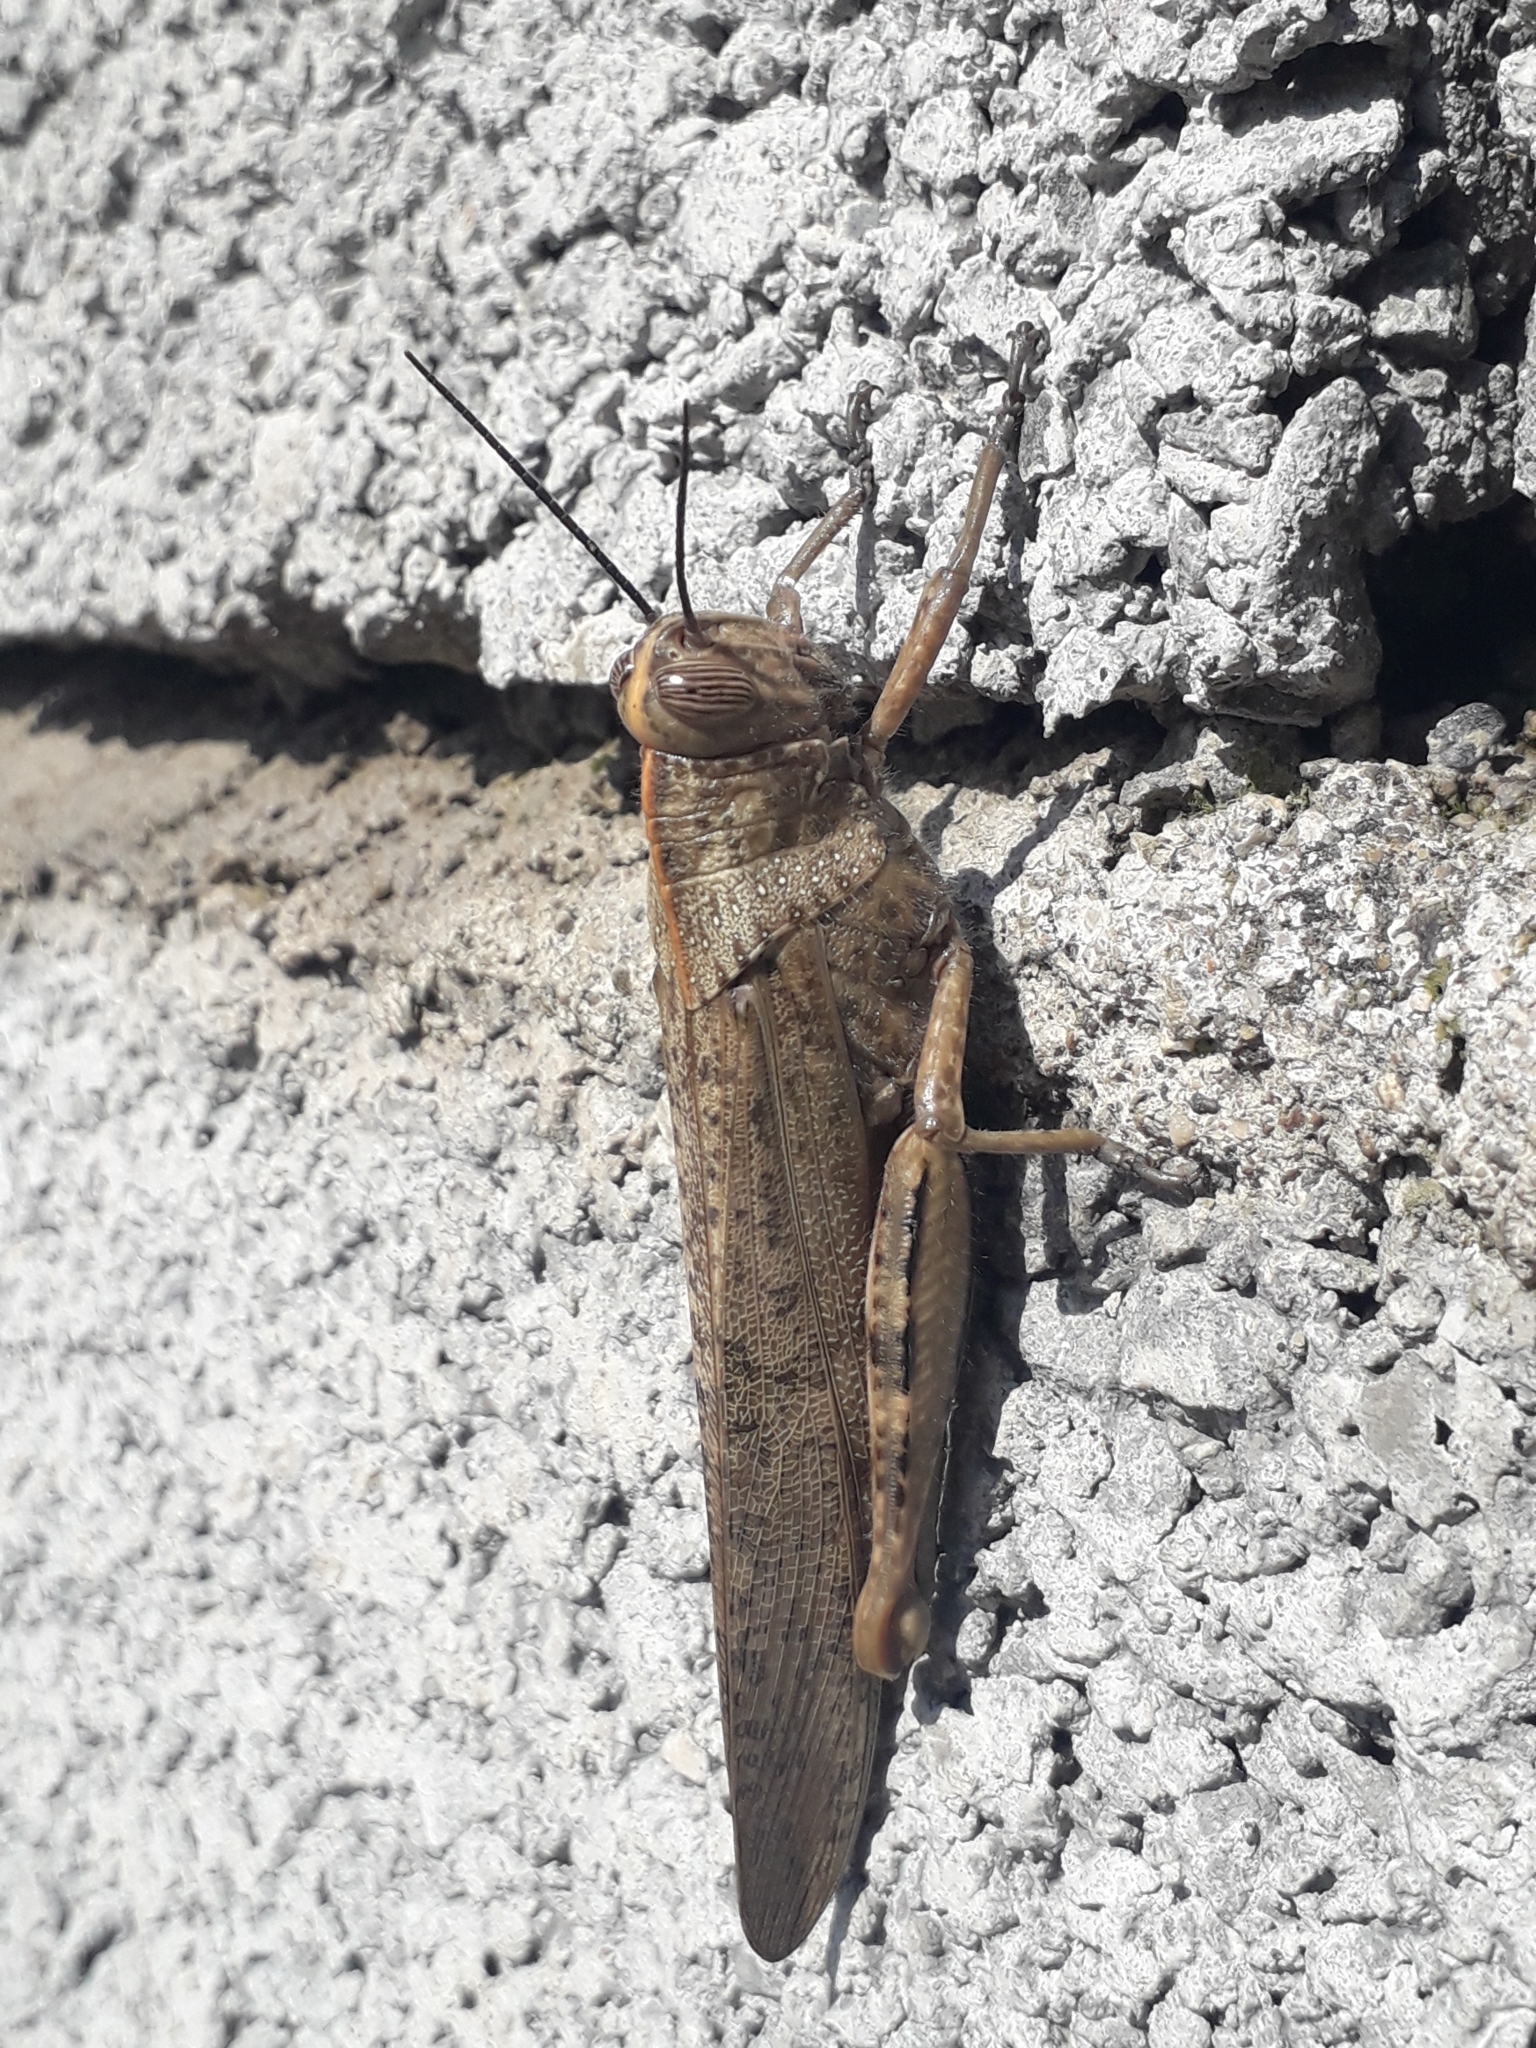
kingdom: Animalia
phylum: Arthropoda
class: Insecta
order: Orthoptera
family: Acrididae
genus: Anacridium
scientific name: Anacridium aegyptium
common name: Egyptian grasshopper
